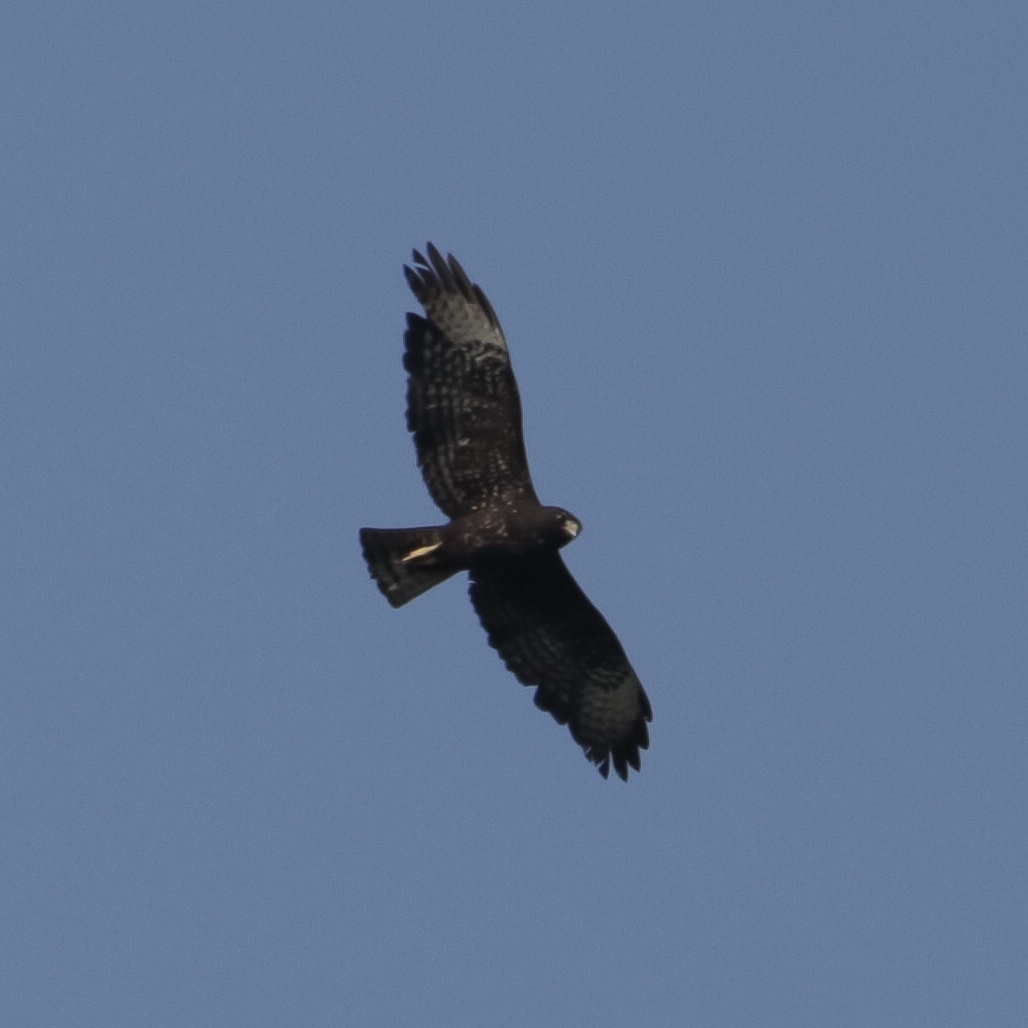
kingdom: Animalia
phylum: Chordata
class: Aves
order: Accipitriformes
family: Accipitridae
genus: Buteo
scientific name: Buteo brachyurus
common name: Short-tailed hawk
